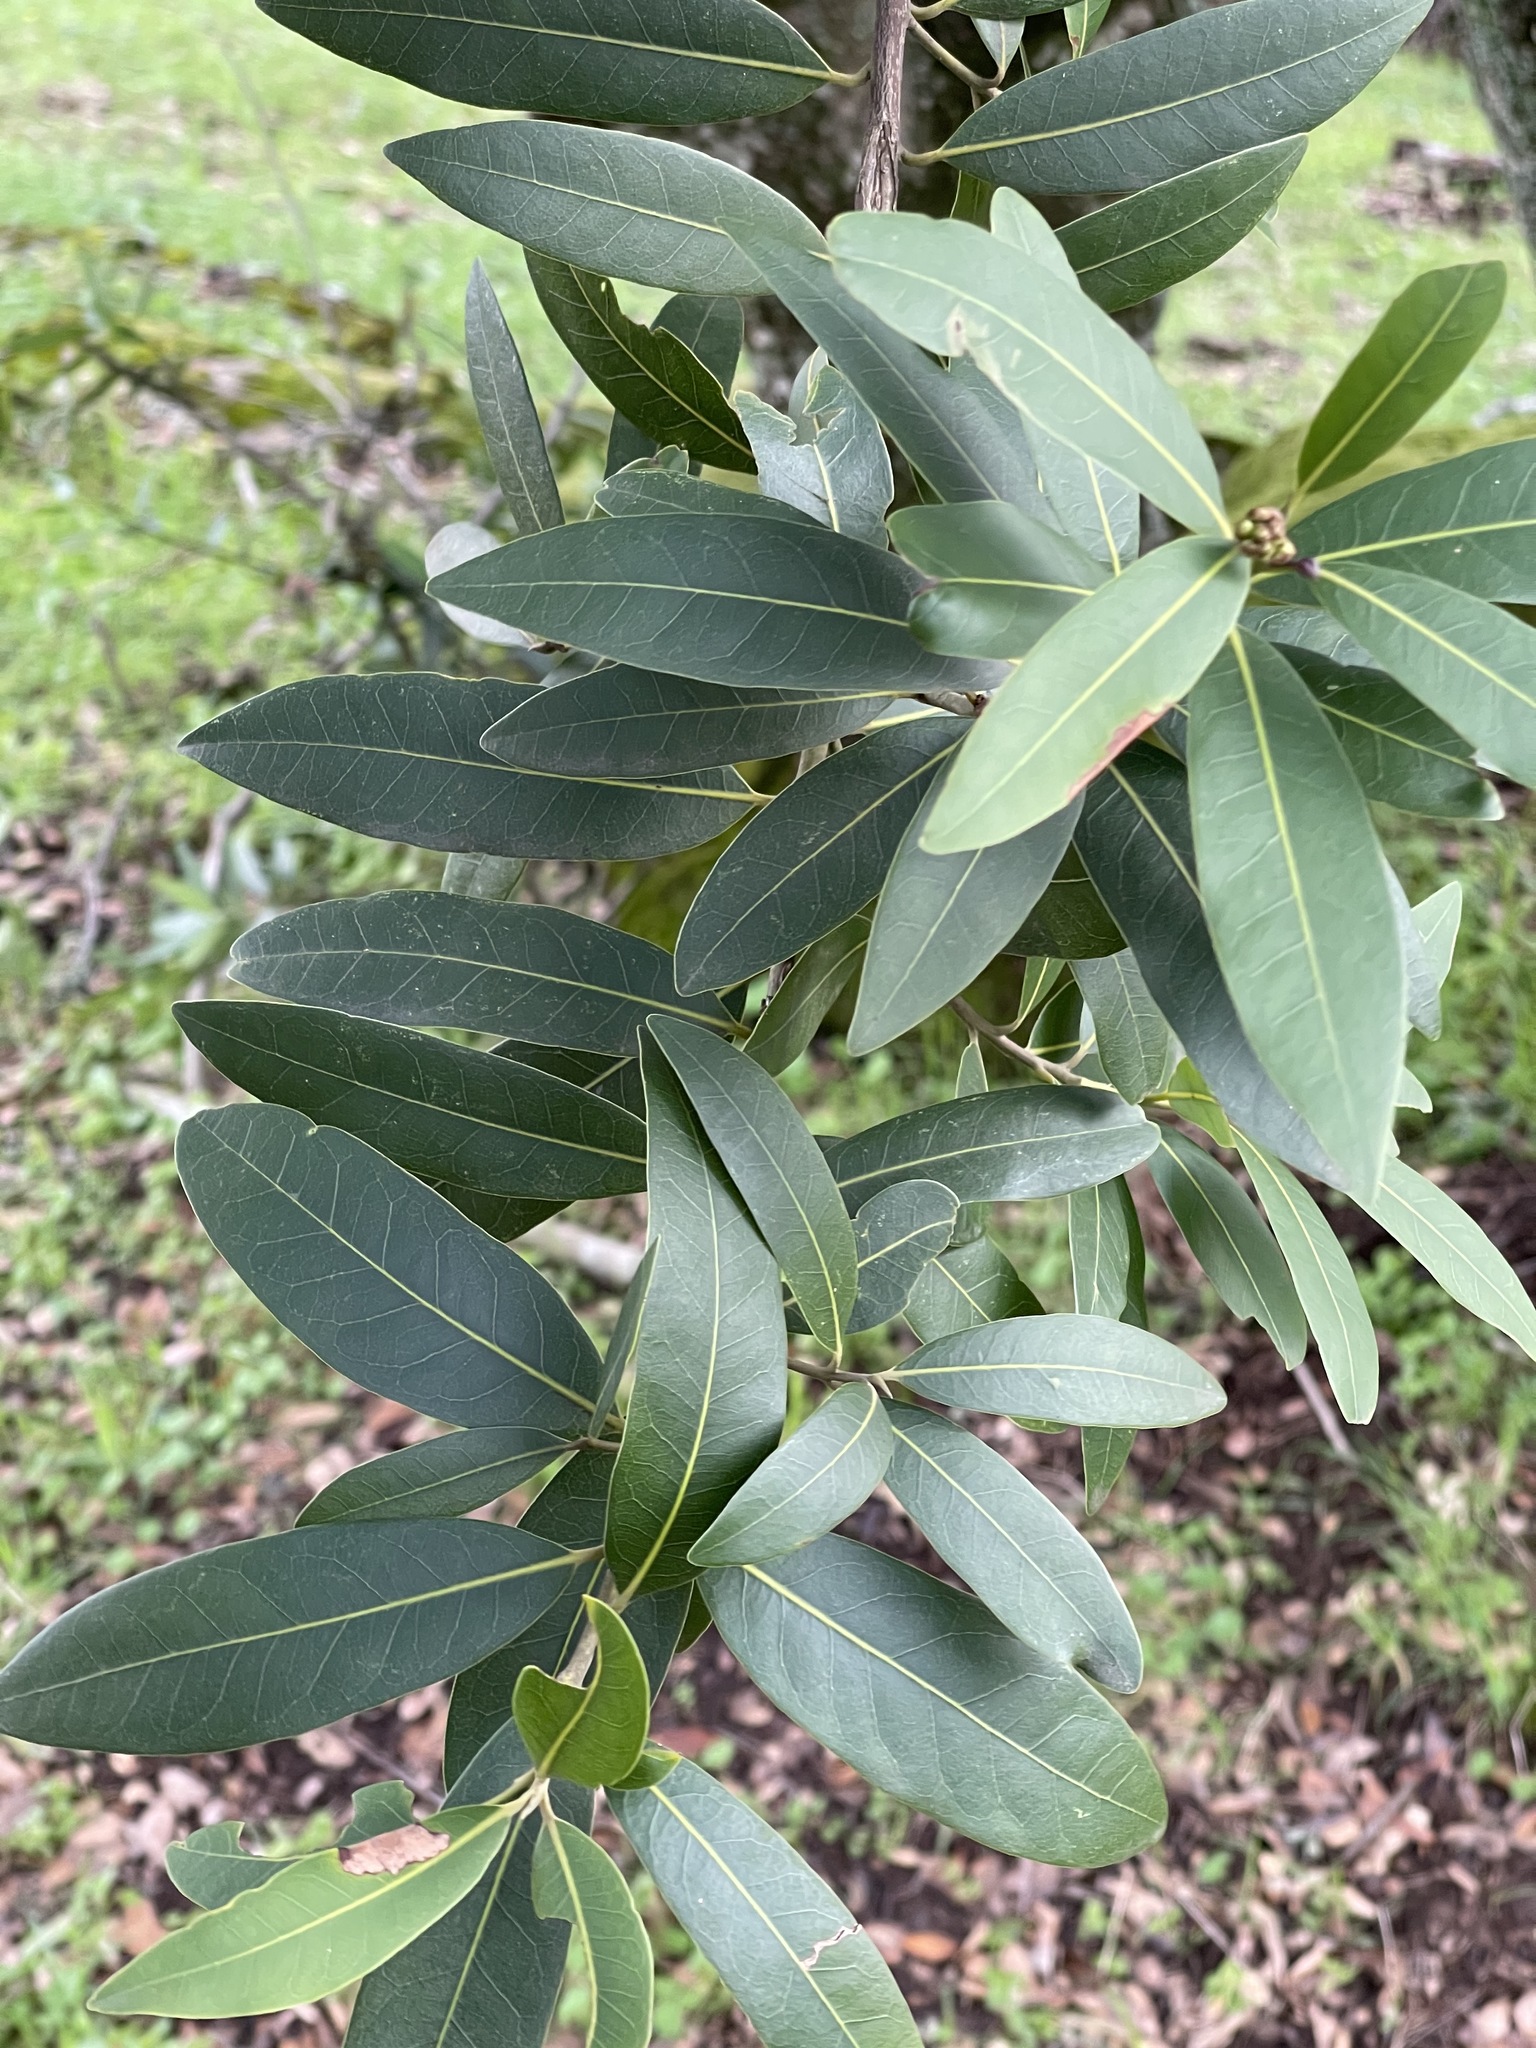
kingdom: Plantae
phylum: Tracheophyta
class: Magnoliopsida
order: Laurales
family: Lauraceae
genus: Umbellularia
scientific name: Umbellularia californica
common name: California bay
